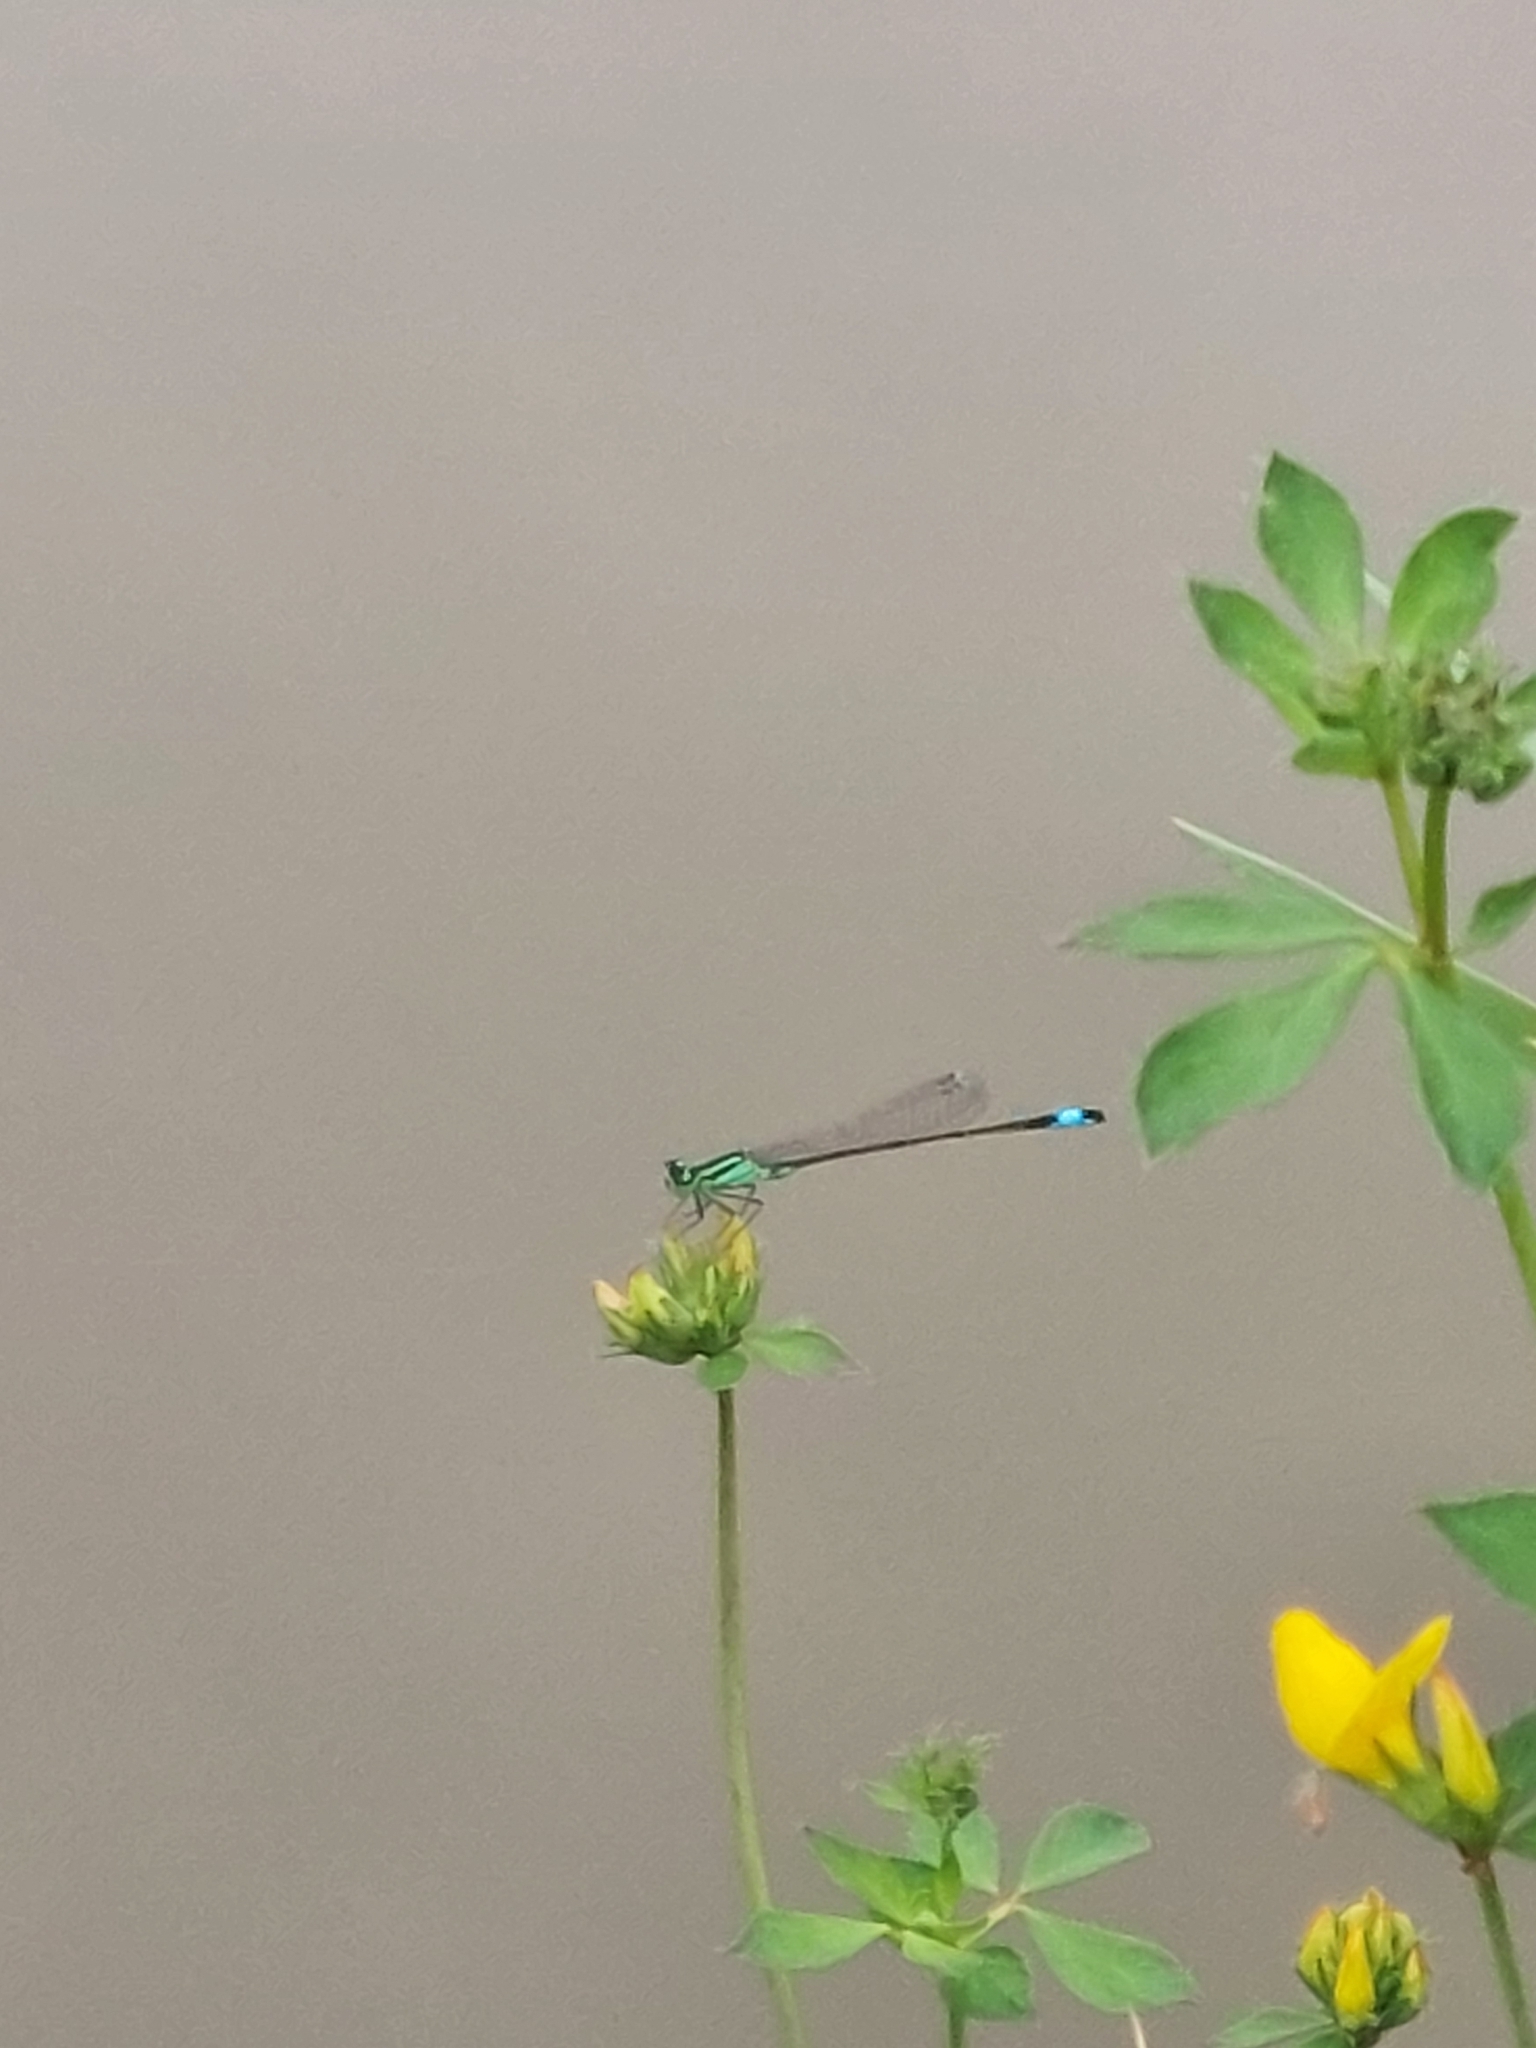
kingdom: Animalia
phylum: Arthropoda
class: Insecta
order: Odonata
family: Coenagrionidae
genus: Ischnura
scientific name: Ischnura elegans
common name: Blue-tailed damselfly
